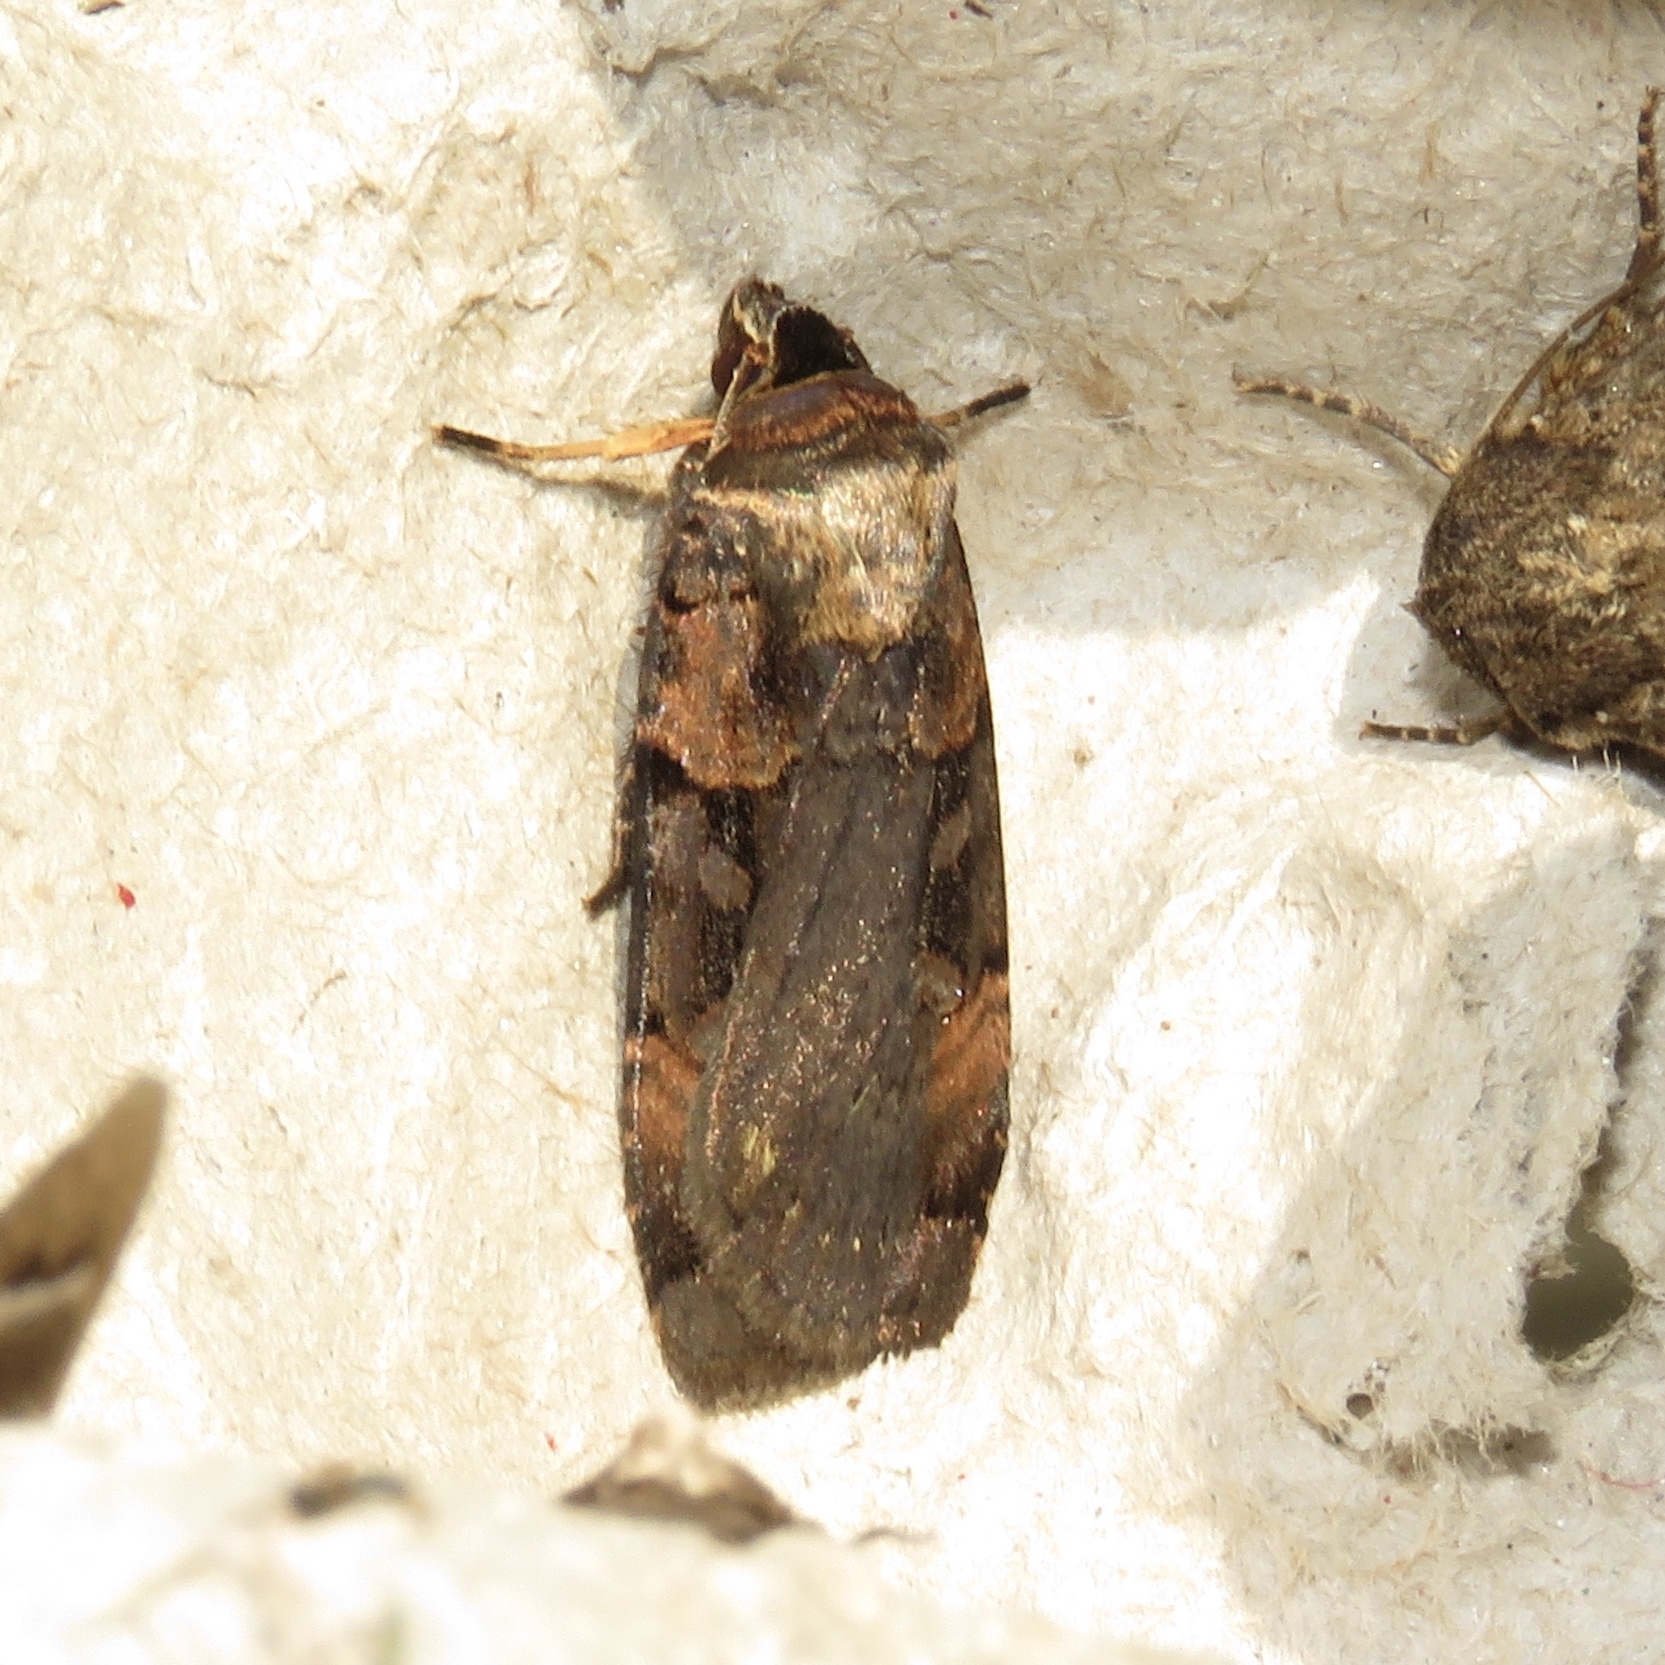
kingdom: Animalia
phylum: Arthropoda
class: Insecta
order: Lepidoptera
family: Noctuidae
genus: Pseudohermonassa
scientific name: Pseudohermonassa bicarnea
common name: Pink spotted dart
